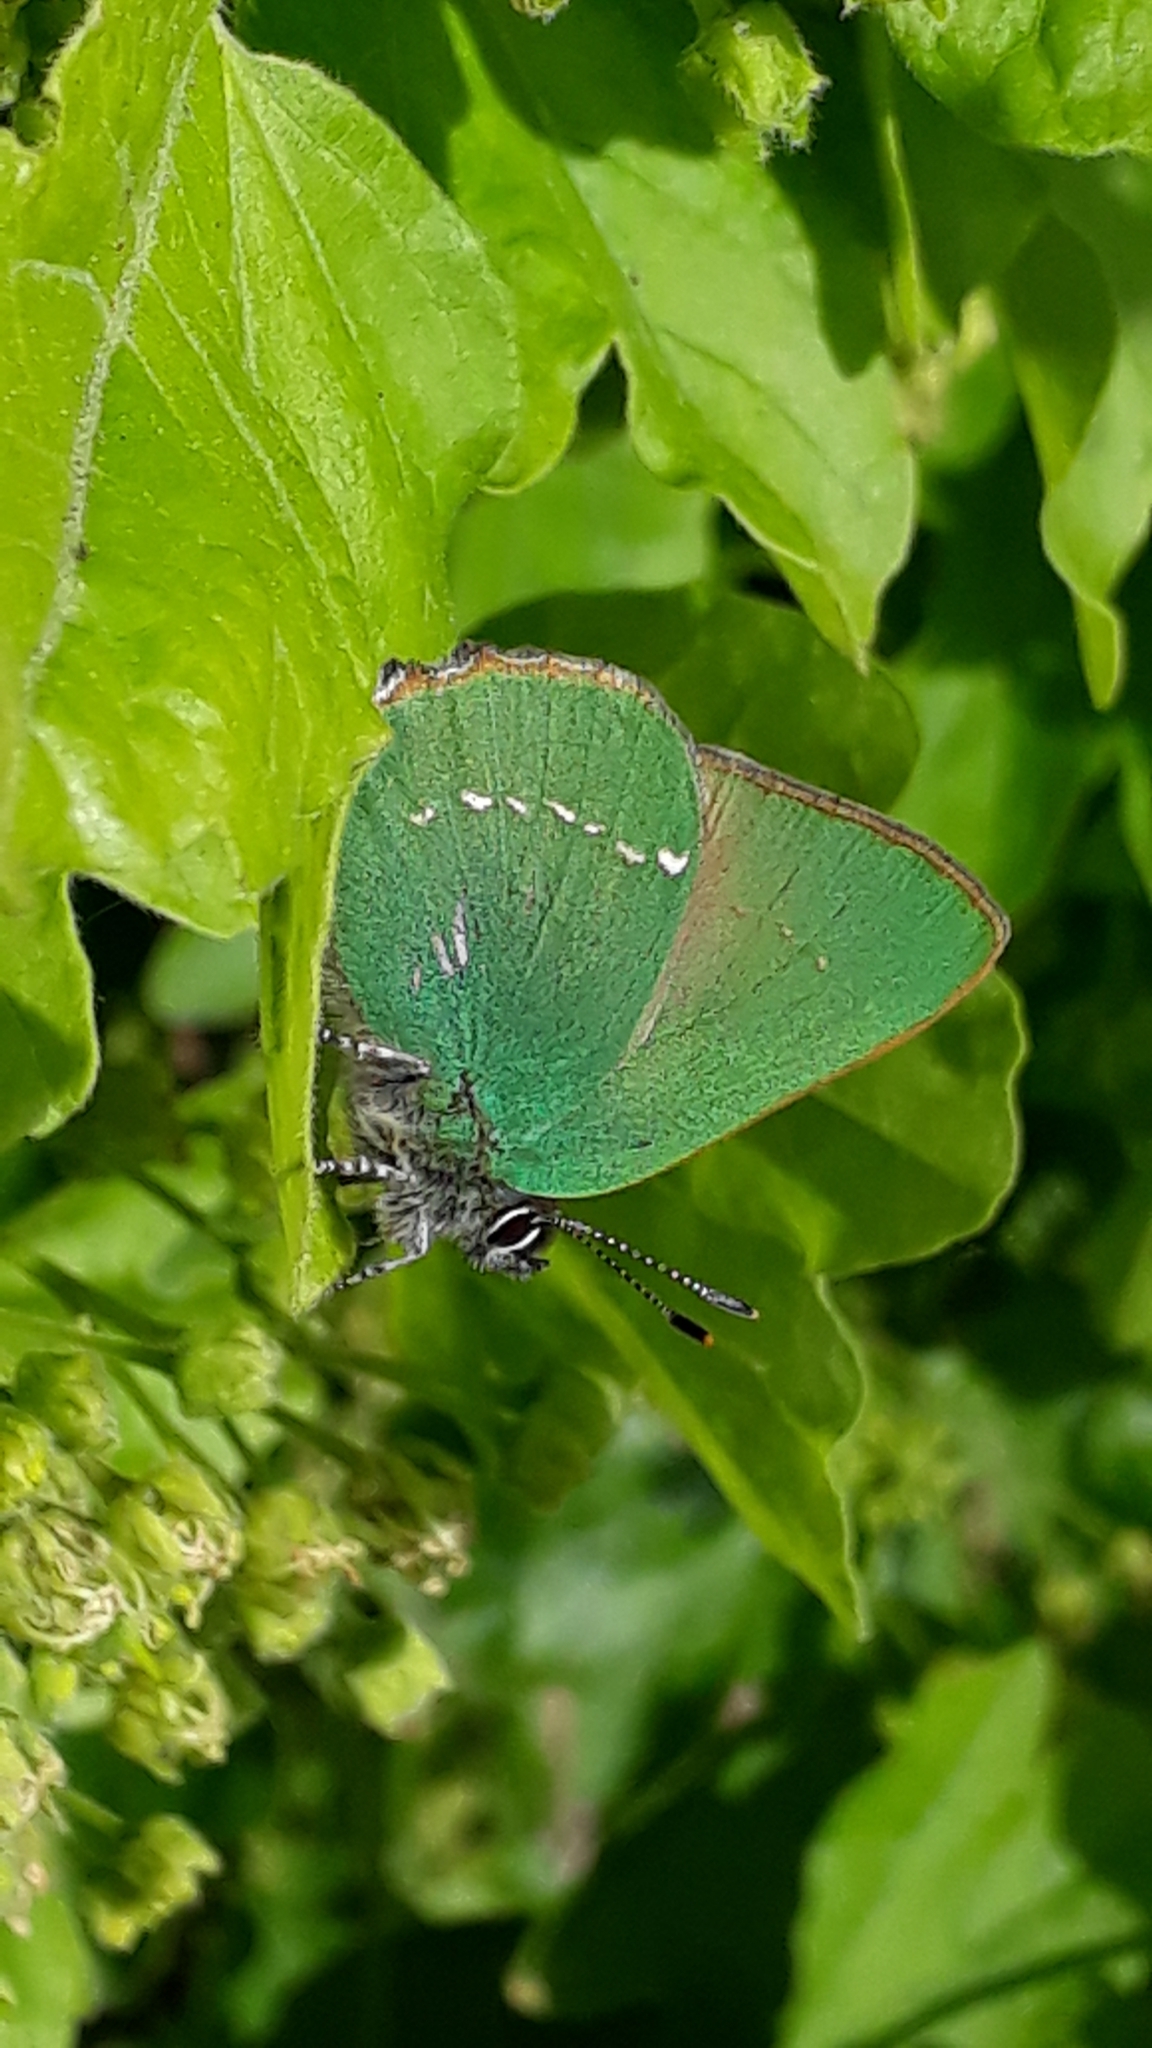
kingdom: Animalia
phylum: Arthropoda
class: Insecta
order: Lepidoptera
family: Lycaenidae
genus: Callophrys
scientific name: Callophrys rubi
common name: Green hairstreak
